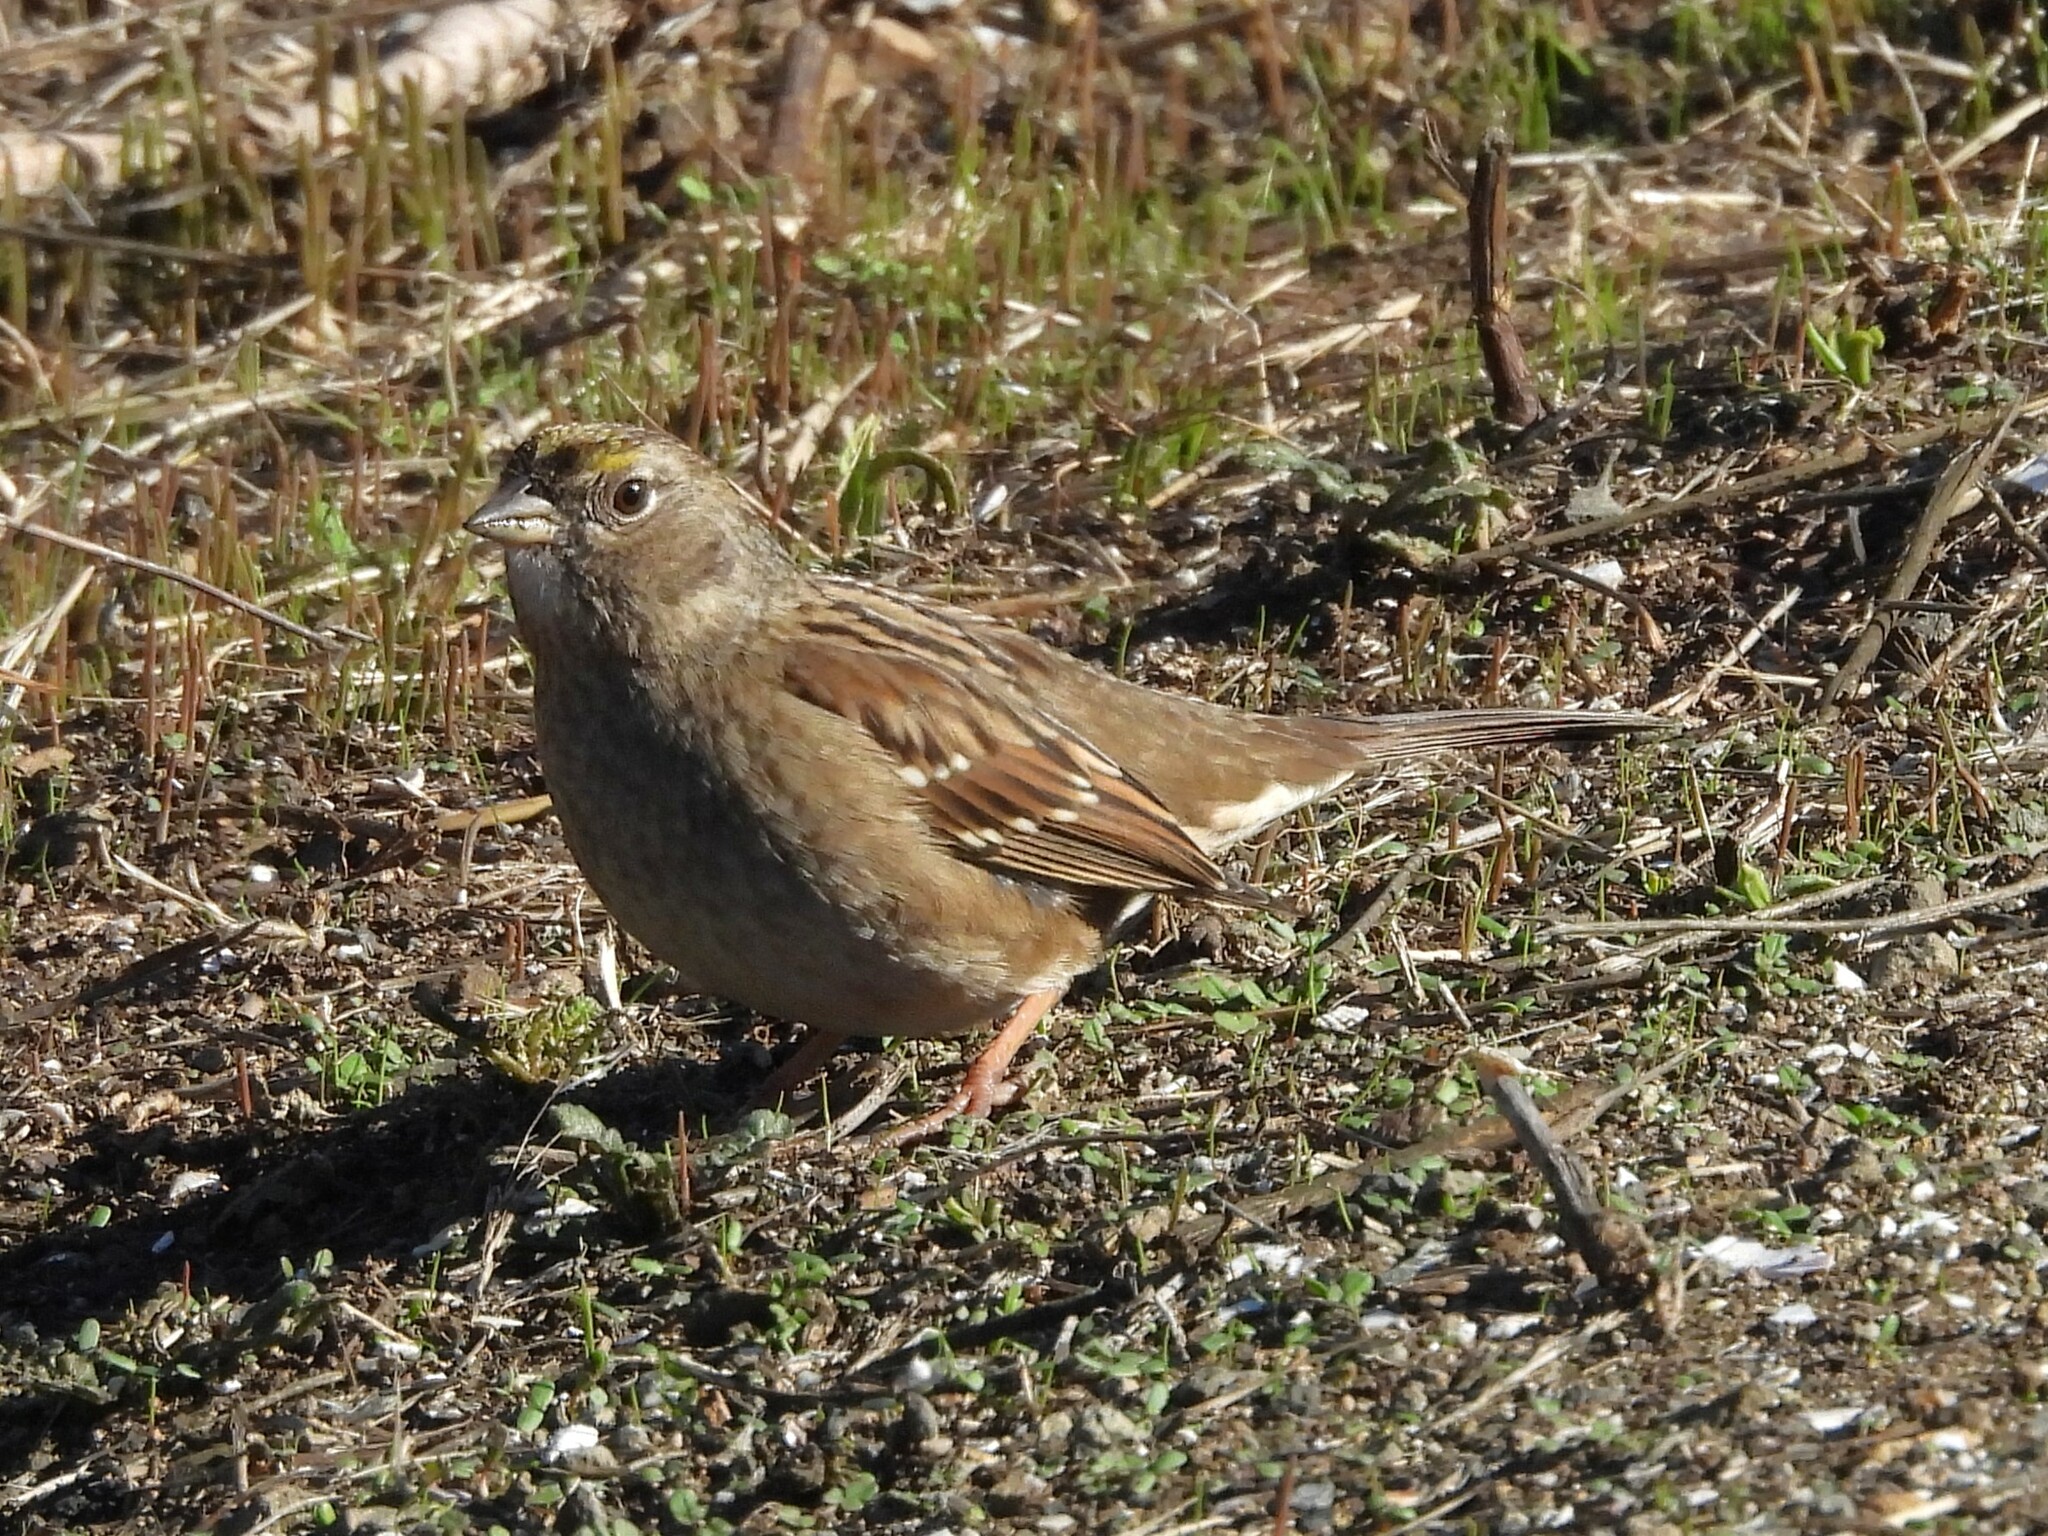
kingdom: Animalia
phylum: Chordata
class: Aves
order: Passeriformes
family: Passerellidae
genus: Zonotrichia
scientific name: Zonotrichia atricapilla
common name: Golden-crowned sparrow
